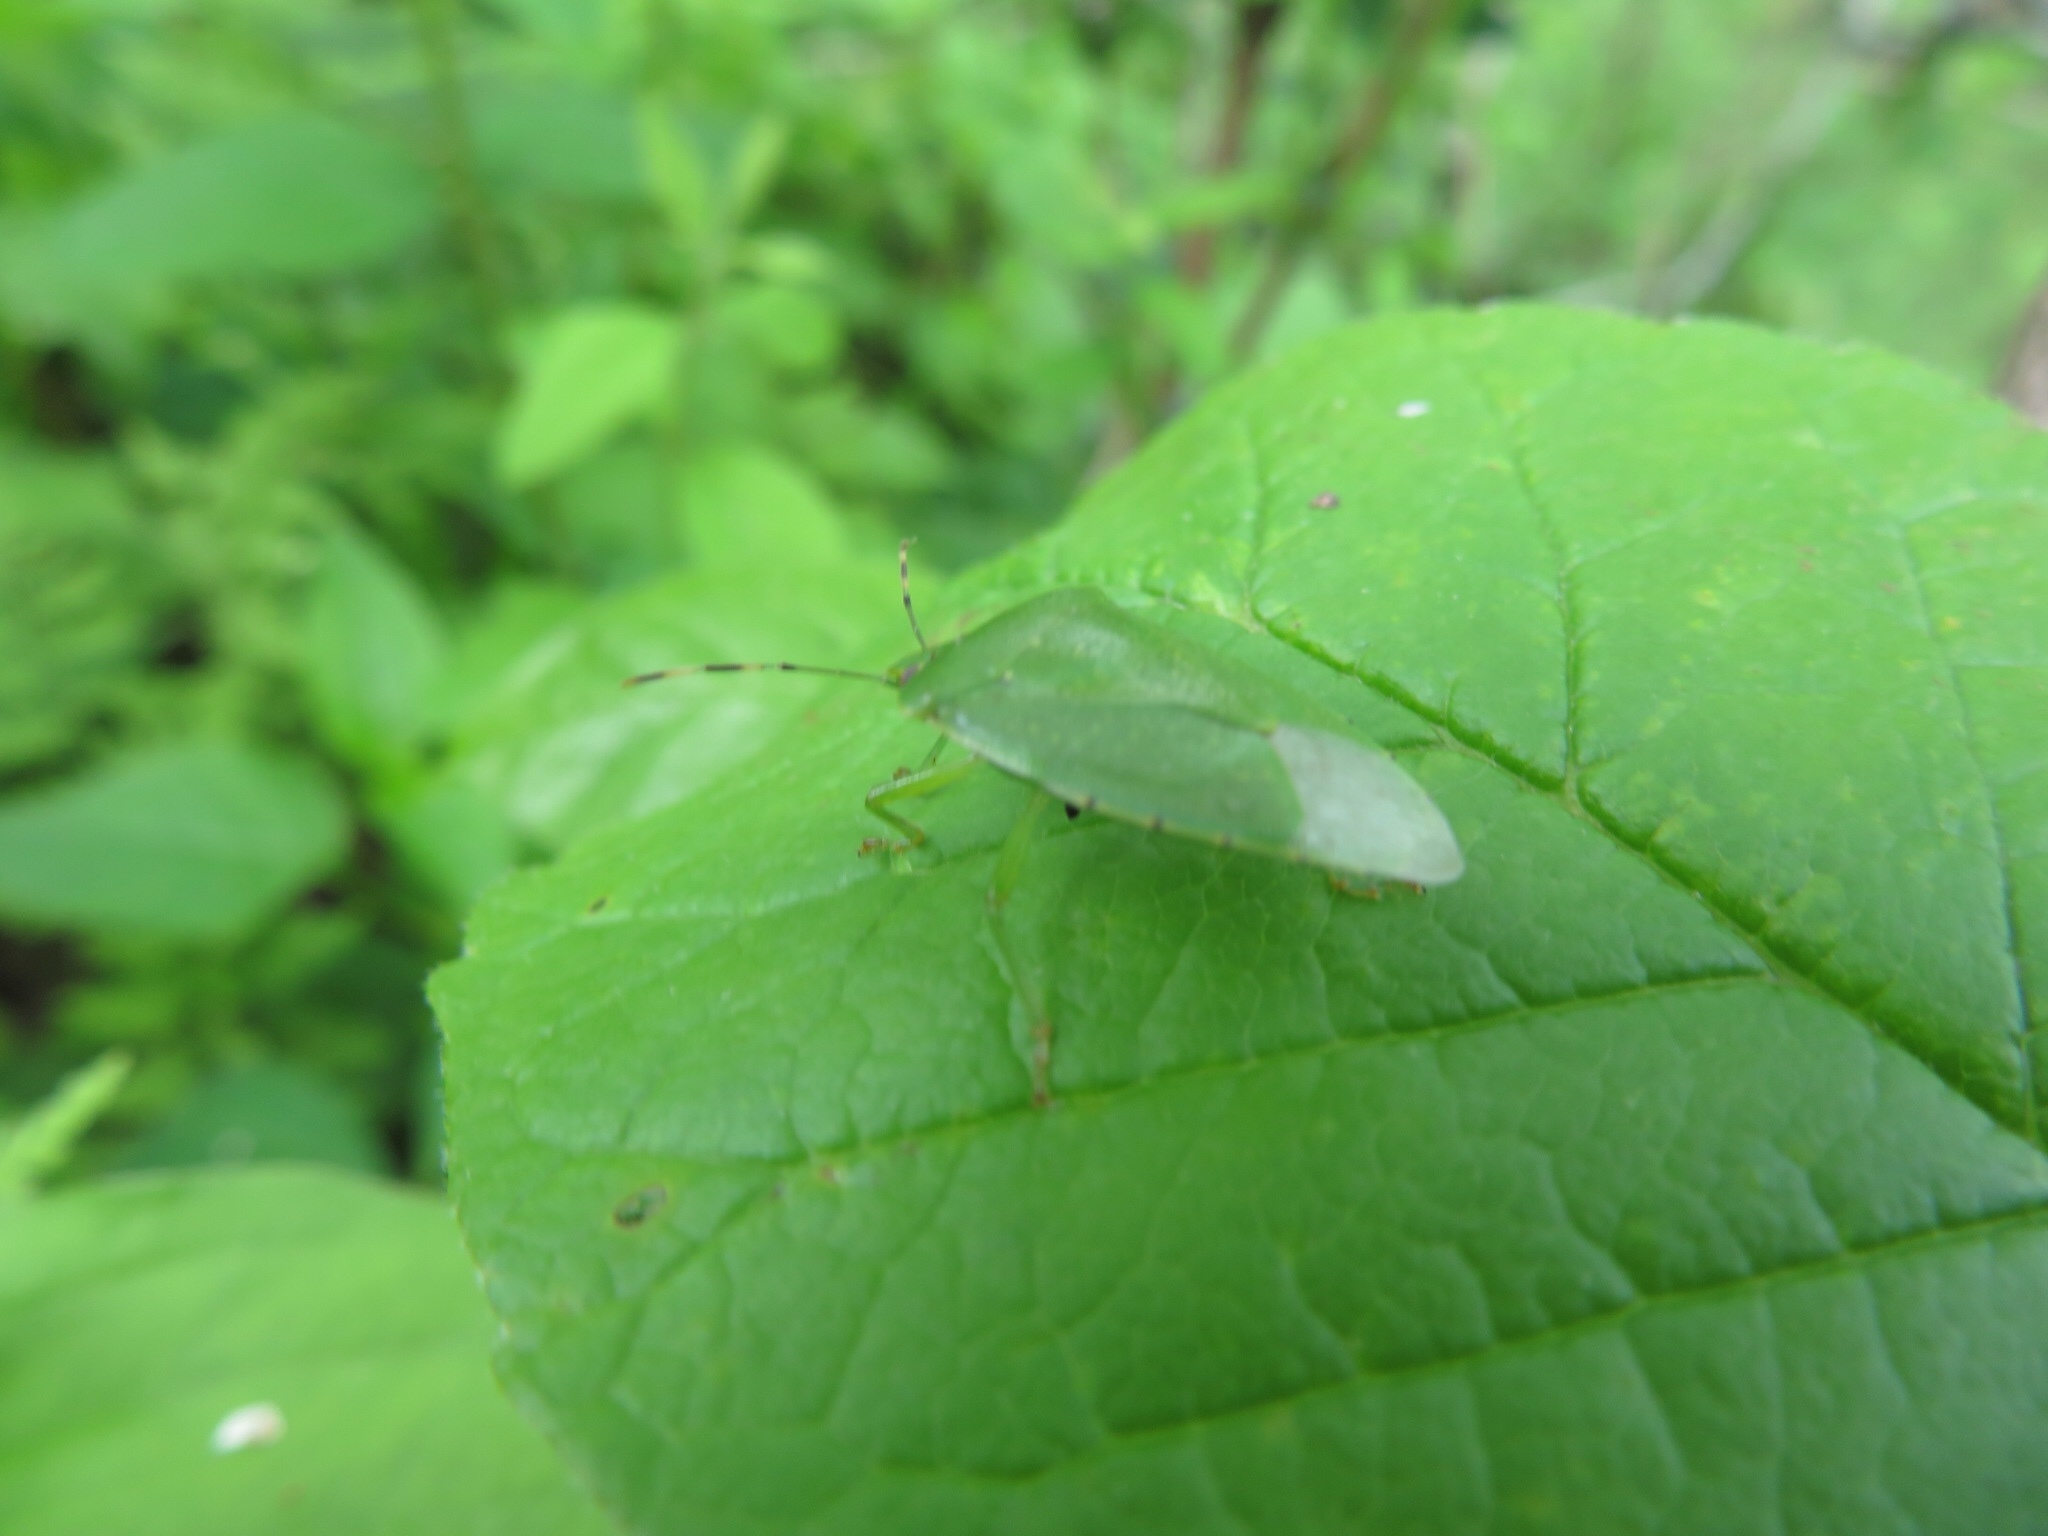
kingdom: Animalia
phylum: Arthropoda
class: Insecta
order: Hemiptera
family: Pentatomidae
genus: Chinavia
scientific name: Chinavia hilaris
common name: Green stink bug
